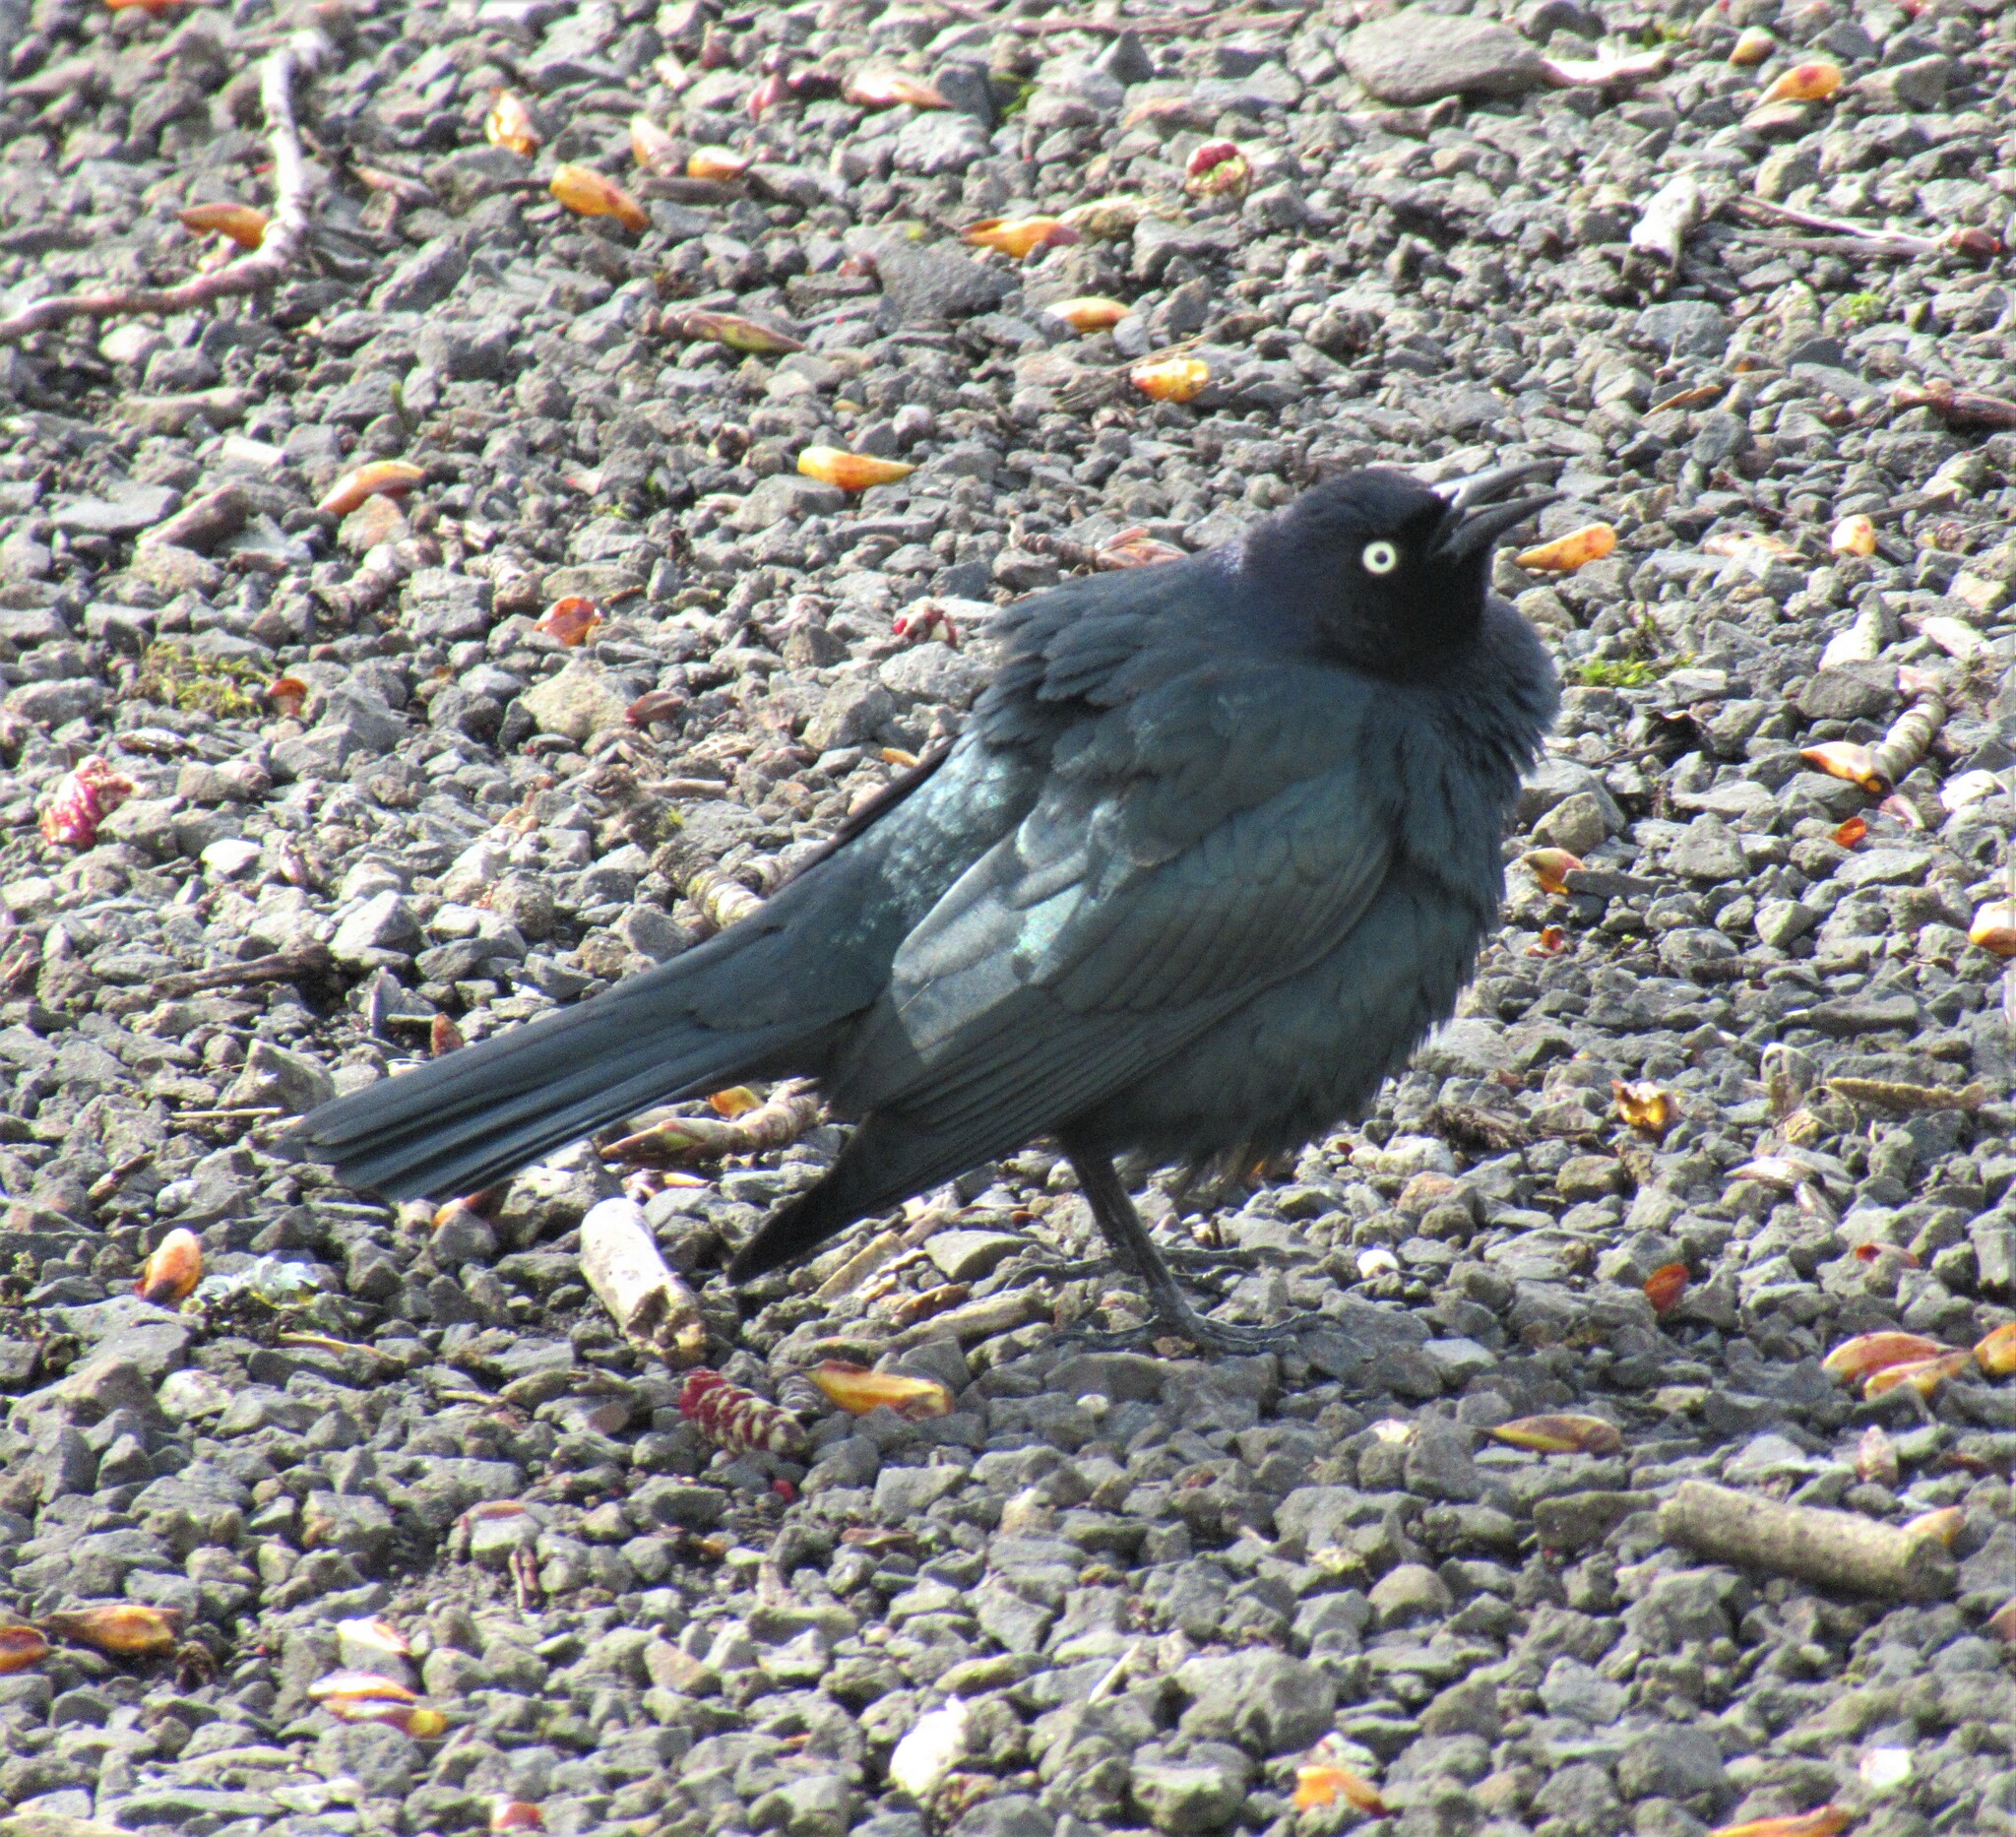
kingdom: Animalia
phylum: Chordata
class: Aves
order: Passeriformes
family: Icteridae
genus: Euphagus
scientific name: Euphagus cyanocephalus
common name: Brewer's blackbird
